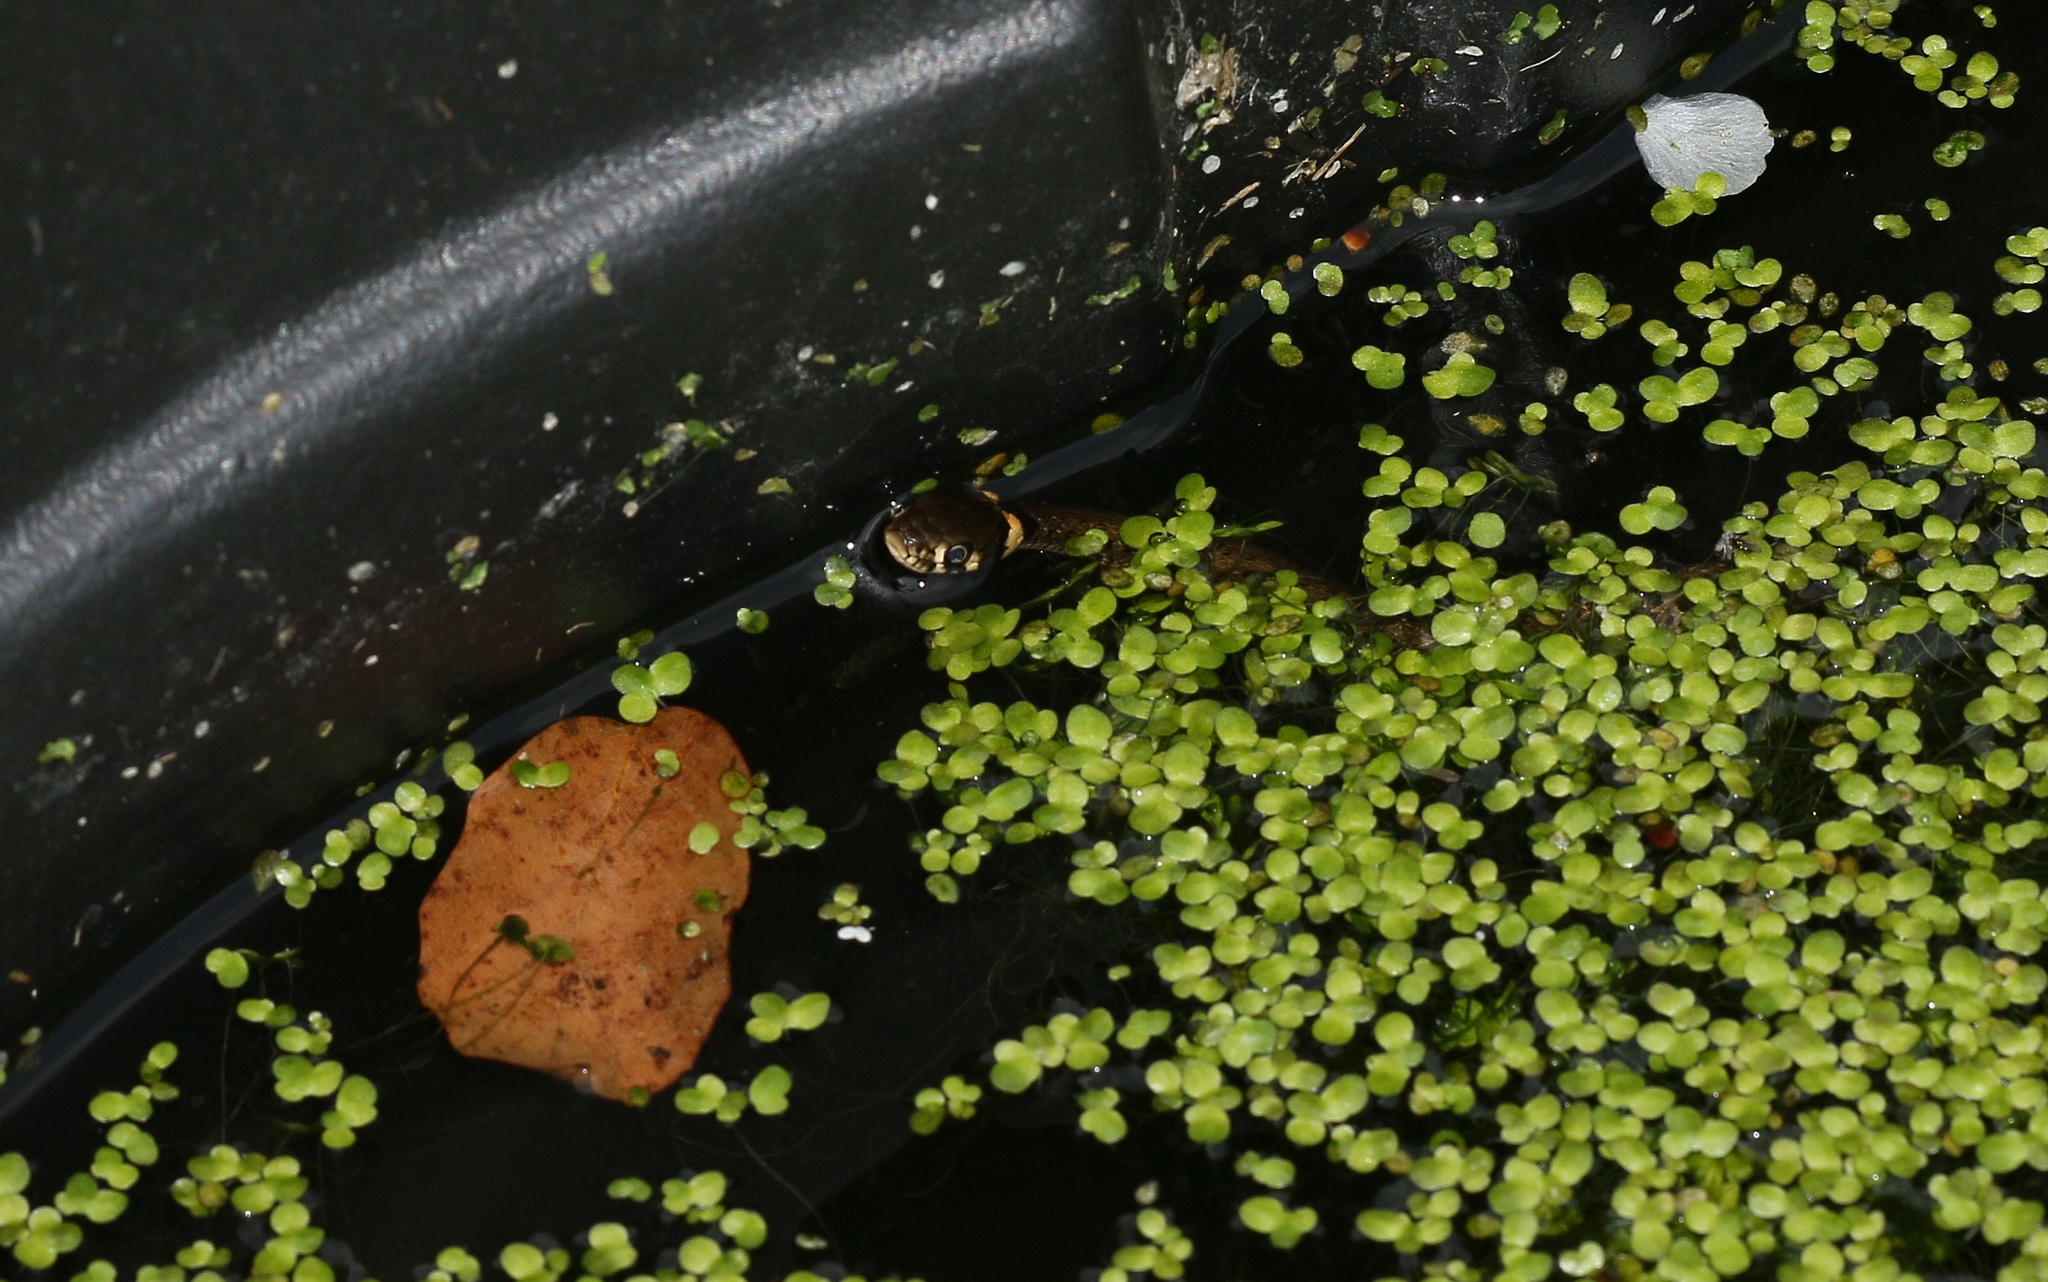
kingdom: Animalia
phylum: Chordata
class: Squamata
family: Colubridae
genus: Natrix
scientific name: Natrix natrix
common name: Grass snake
